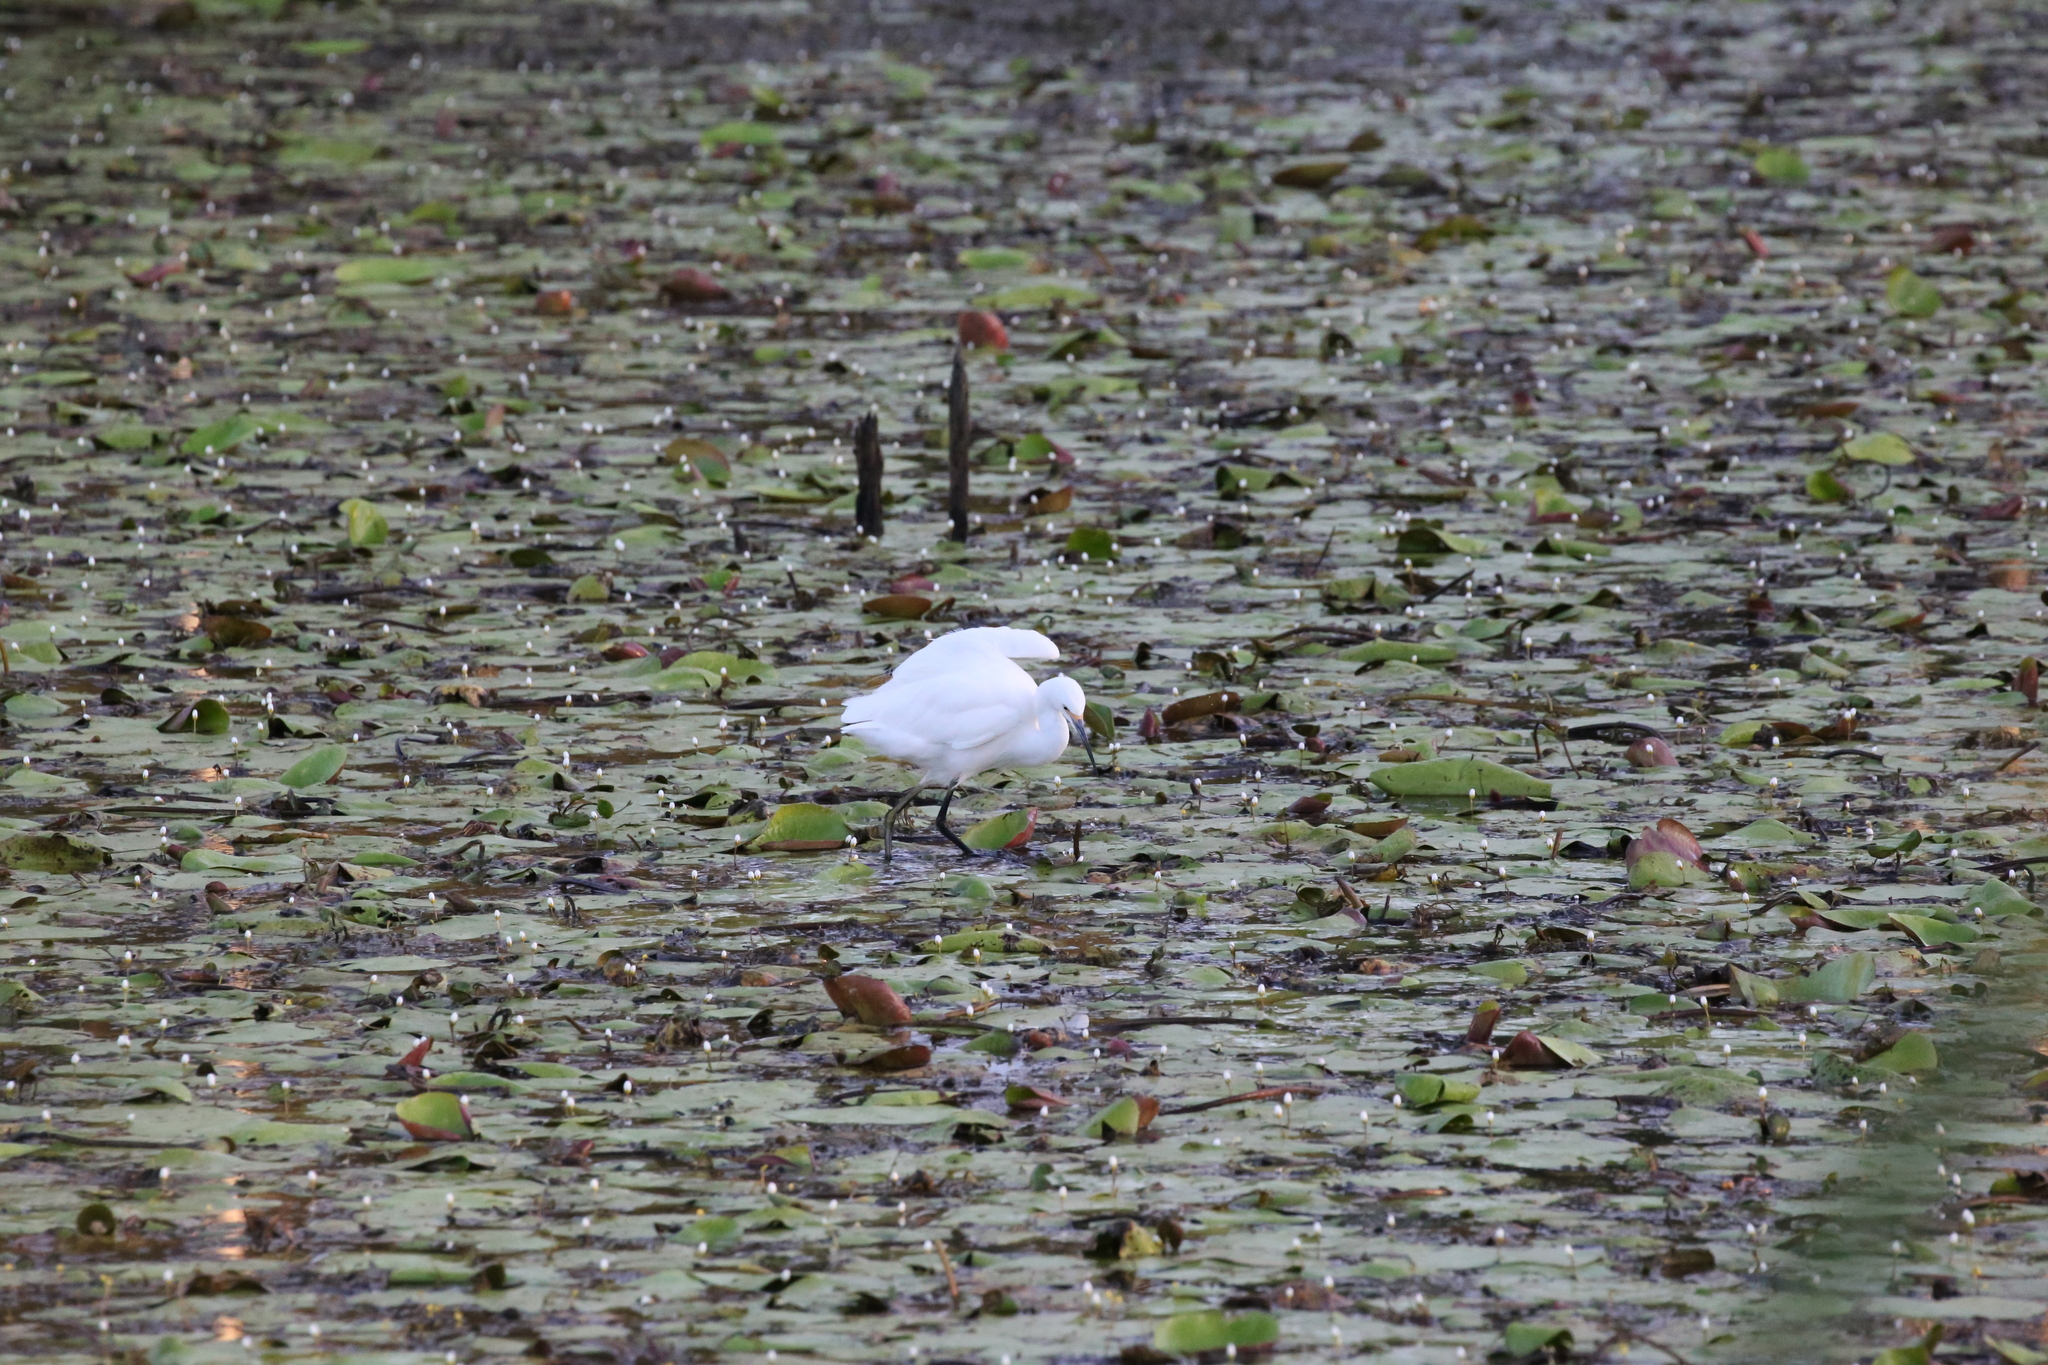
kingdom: Animalia
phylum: Chordata
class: Aves
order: Pelecaniformes
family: Ardeidae
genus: Egretta
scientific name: Egretta garzetta
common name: Little egret
